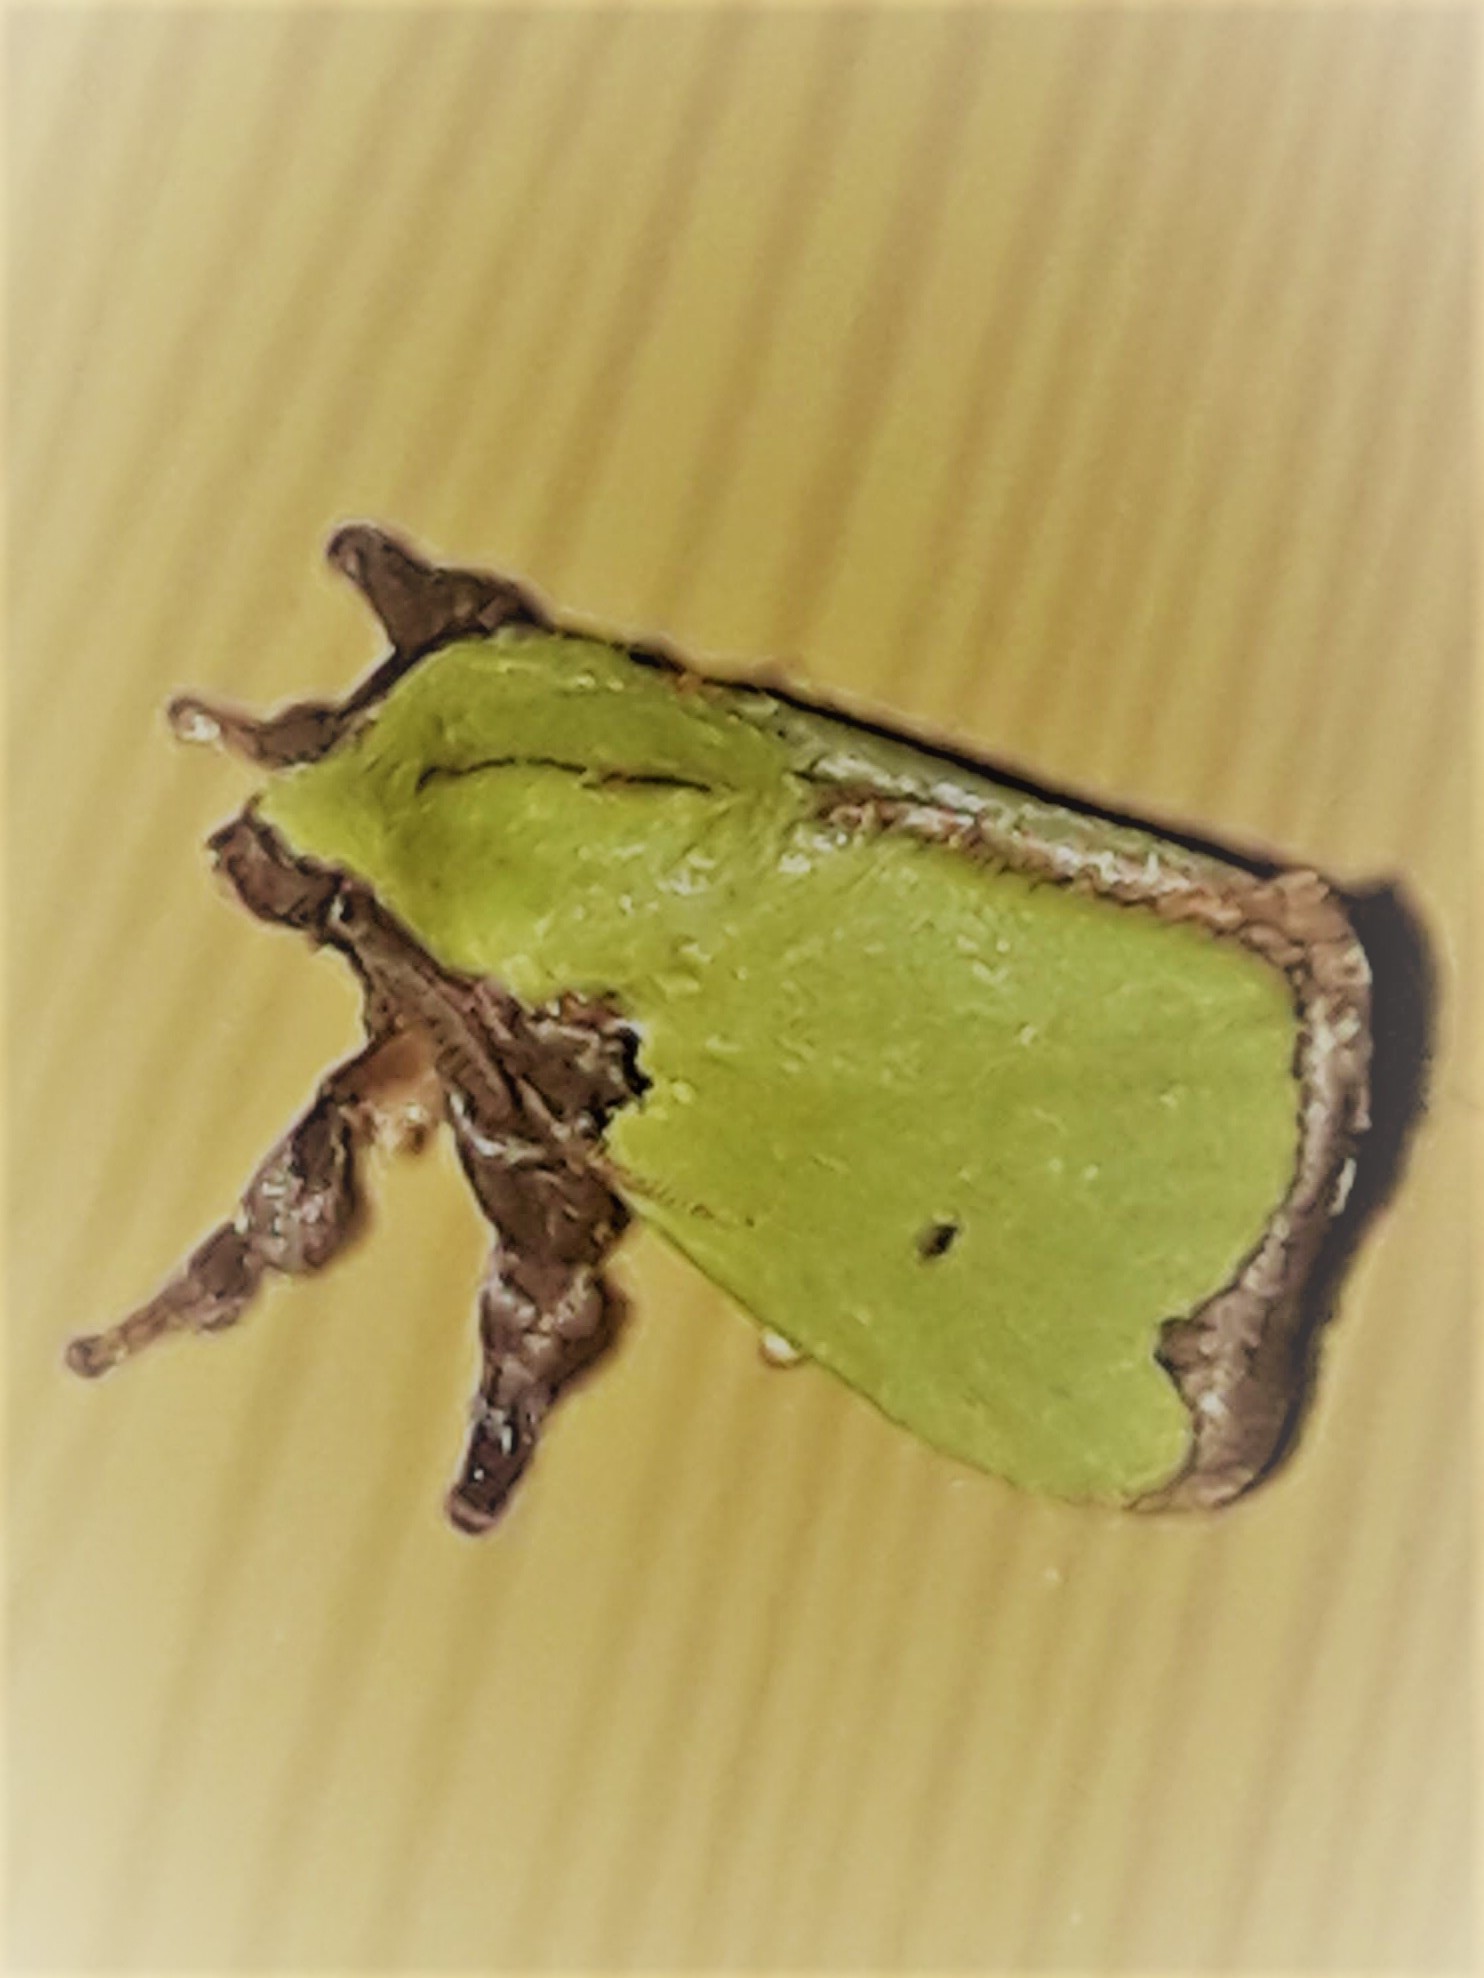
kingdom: Animalia
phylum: Arthropoda
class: Insecta
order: Lepidoptera
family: Limacodidae
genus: Parasa
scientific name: Parasa wellesca
